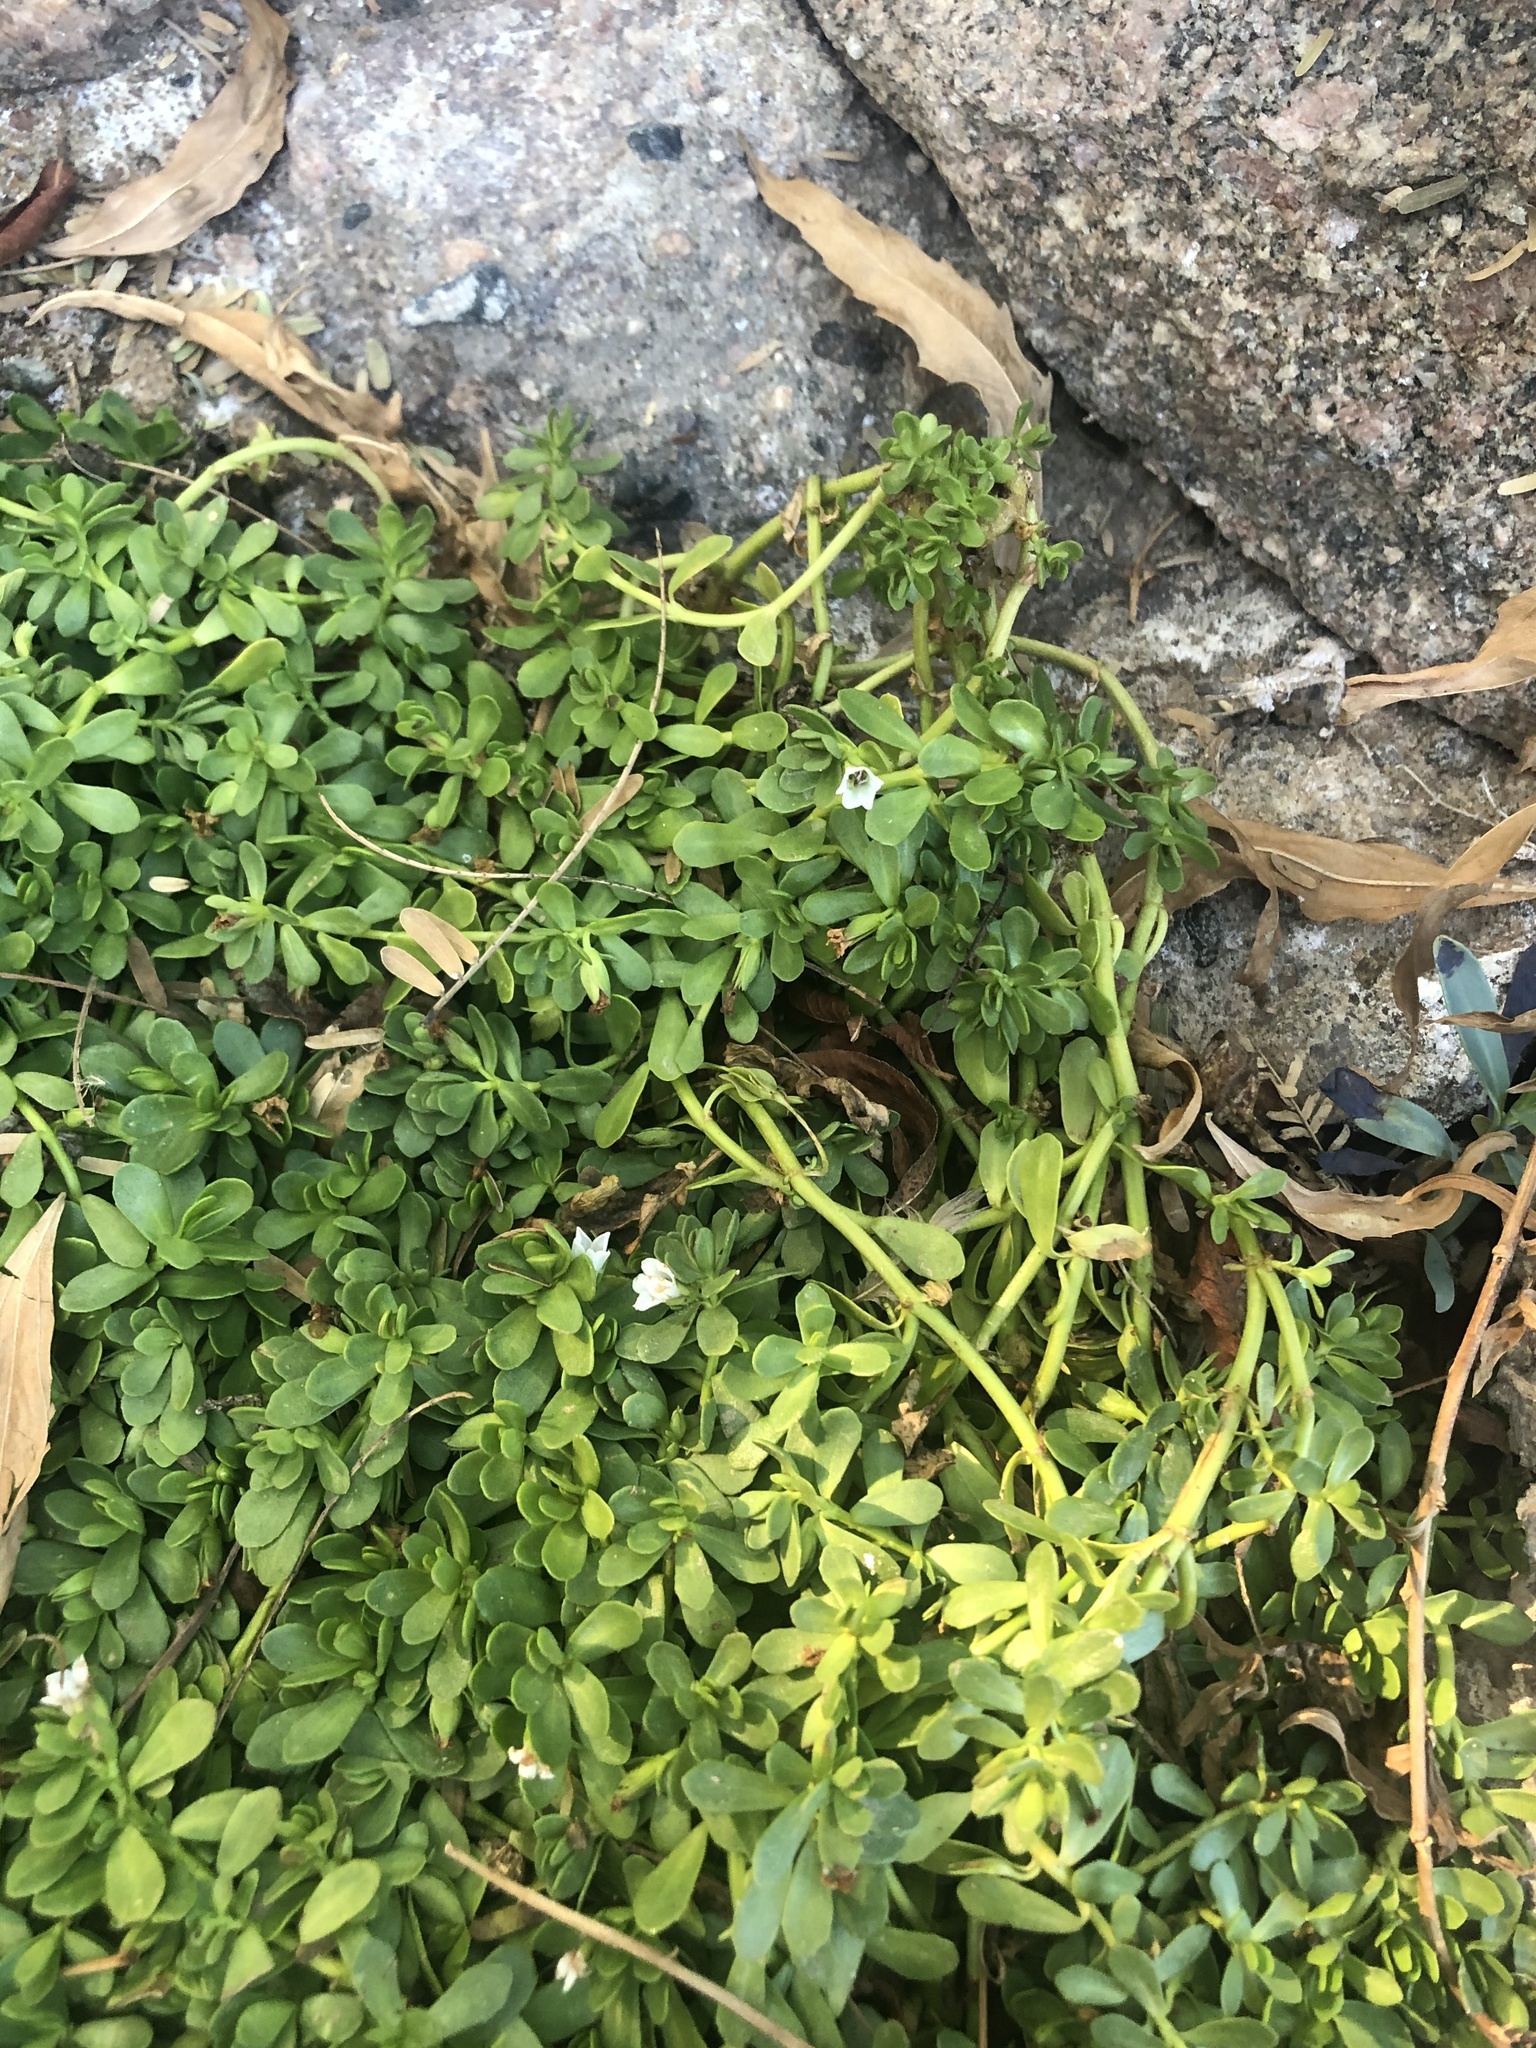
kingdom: Plantae
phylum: Tracheophyta
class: Magnoliopsida
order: Lamiales
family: Plantaginaceae
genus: Bacopa
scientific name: Bacopa monnieri
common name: Indian-pennywort
